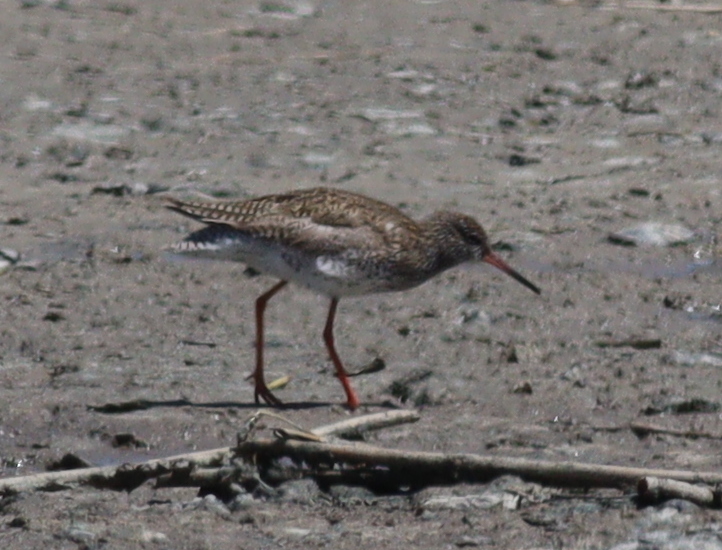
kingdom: Animalia
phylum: Chordata
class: Aves
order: Charadriiformes
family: Scolopacidae
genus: Tringa
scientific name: Tringa totanus
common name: Common redshank
